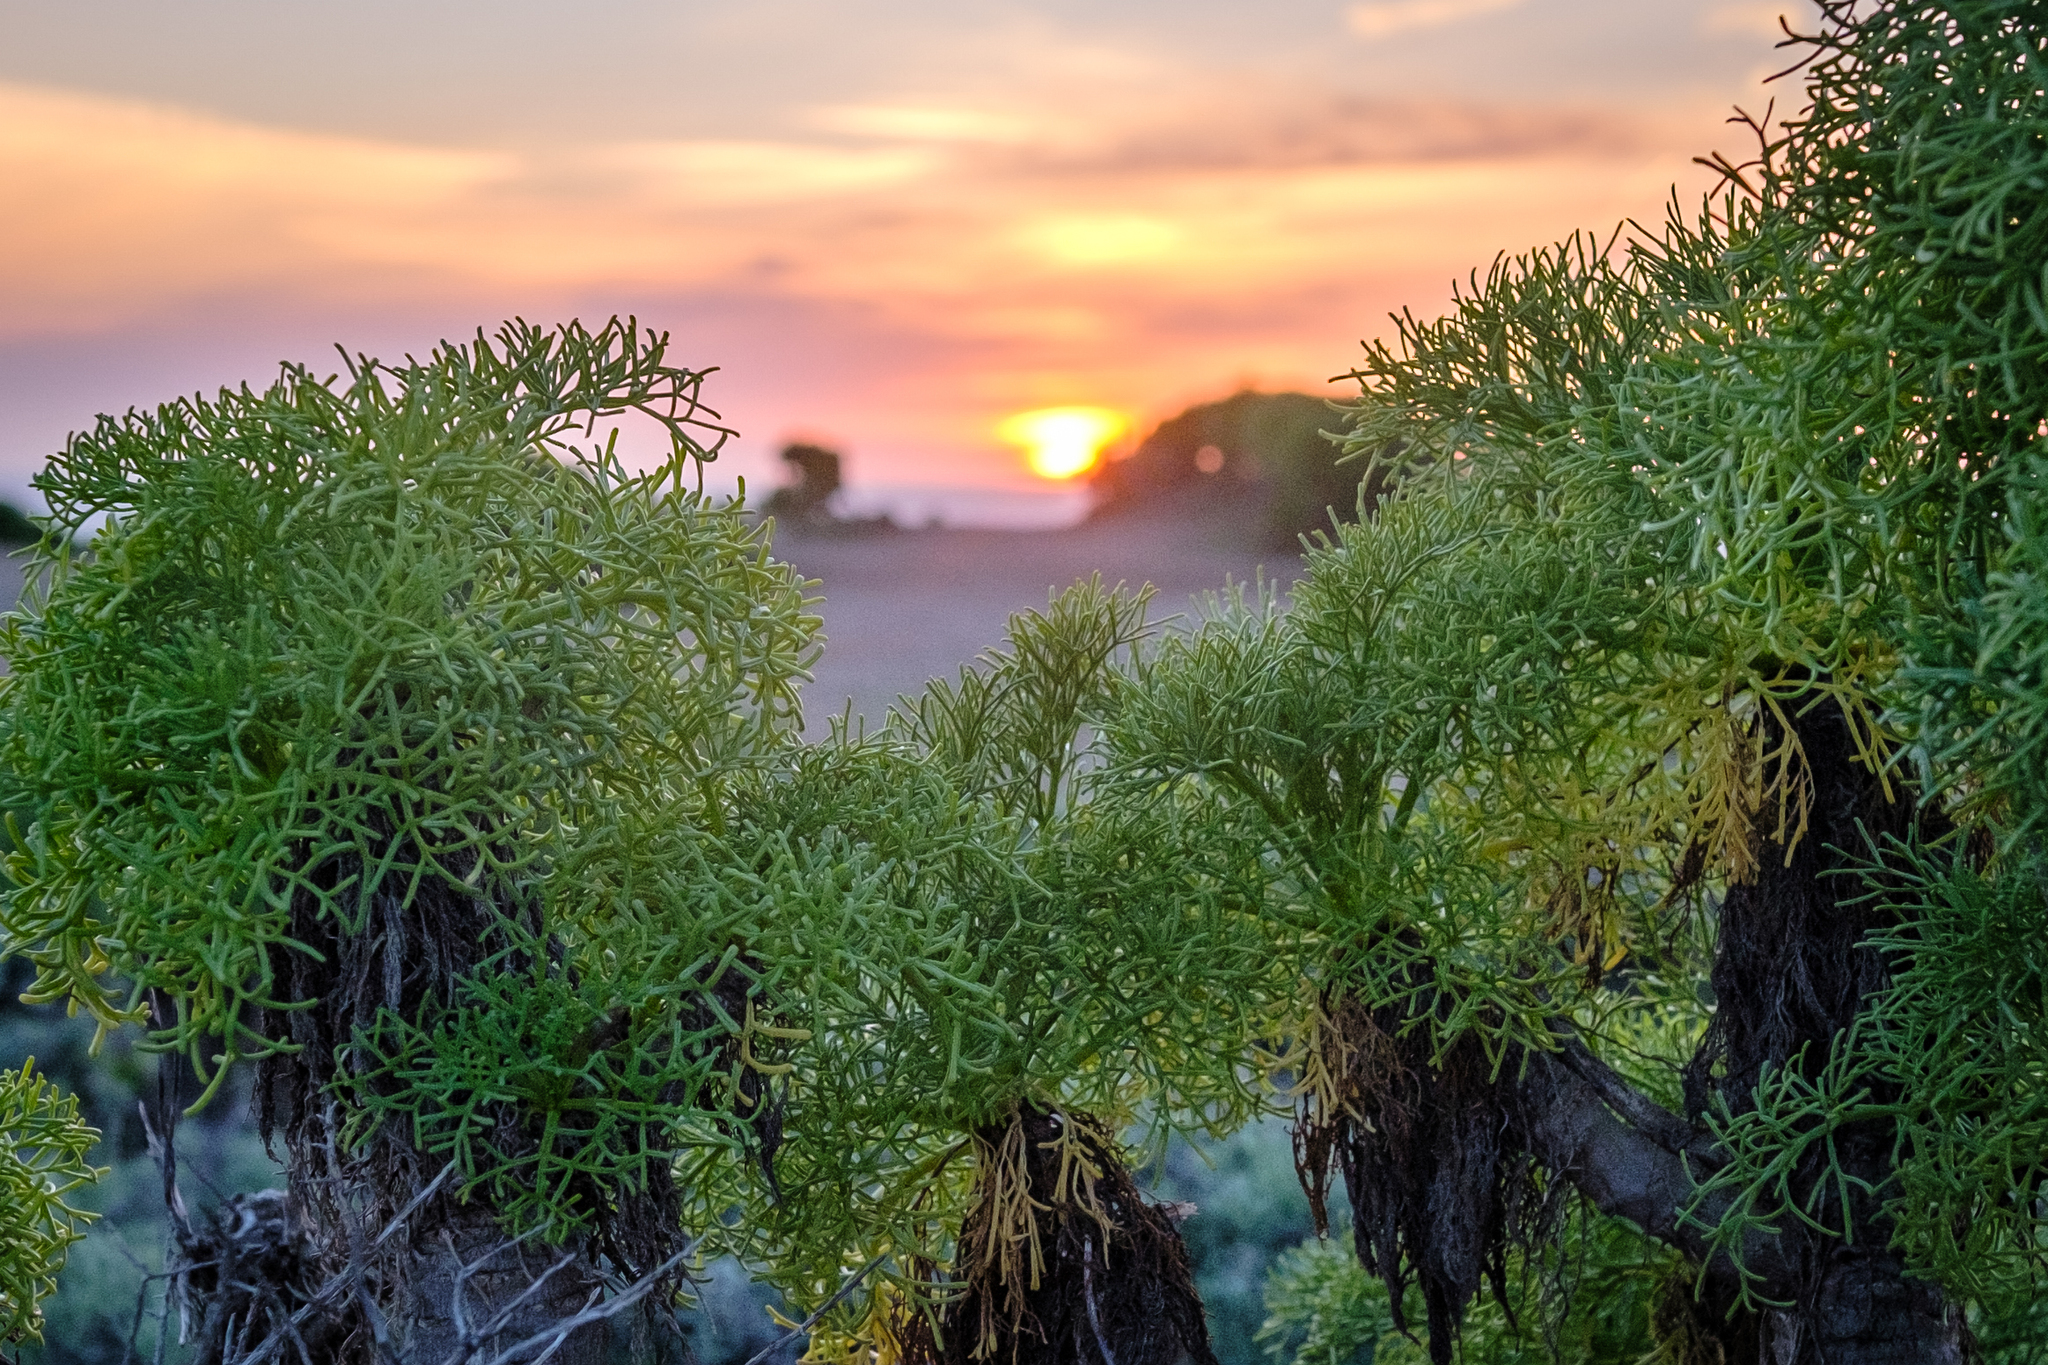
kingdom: Plantae
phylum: Tracheophyta
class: Magnoliopsida
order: Asterales
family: Asteraceae
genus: Coreopsis
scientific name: Coreopsis gigantea
